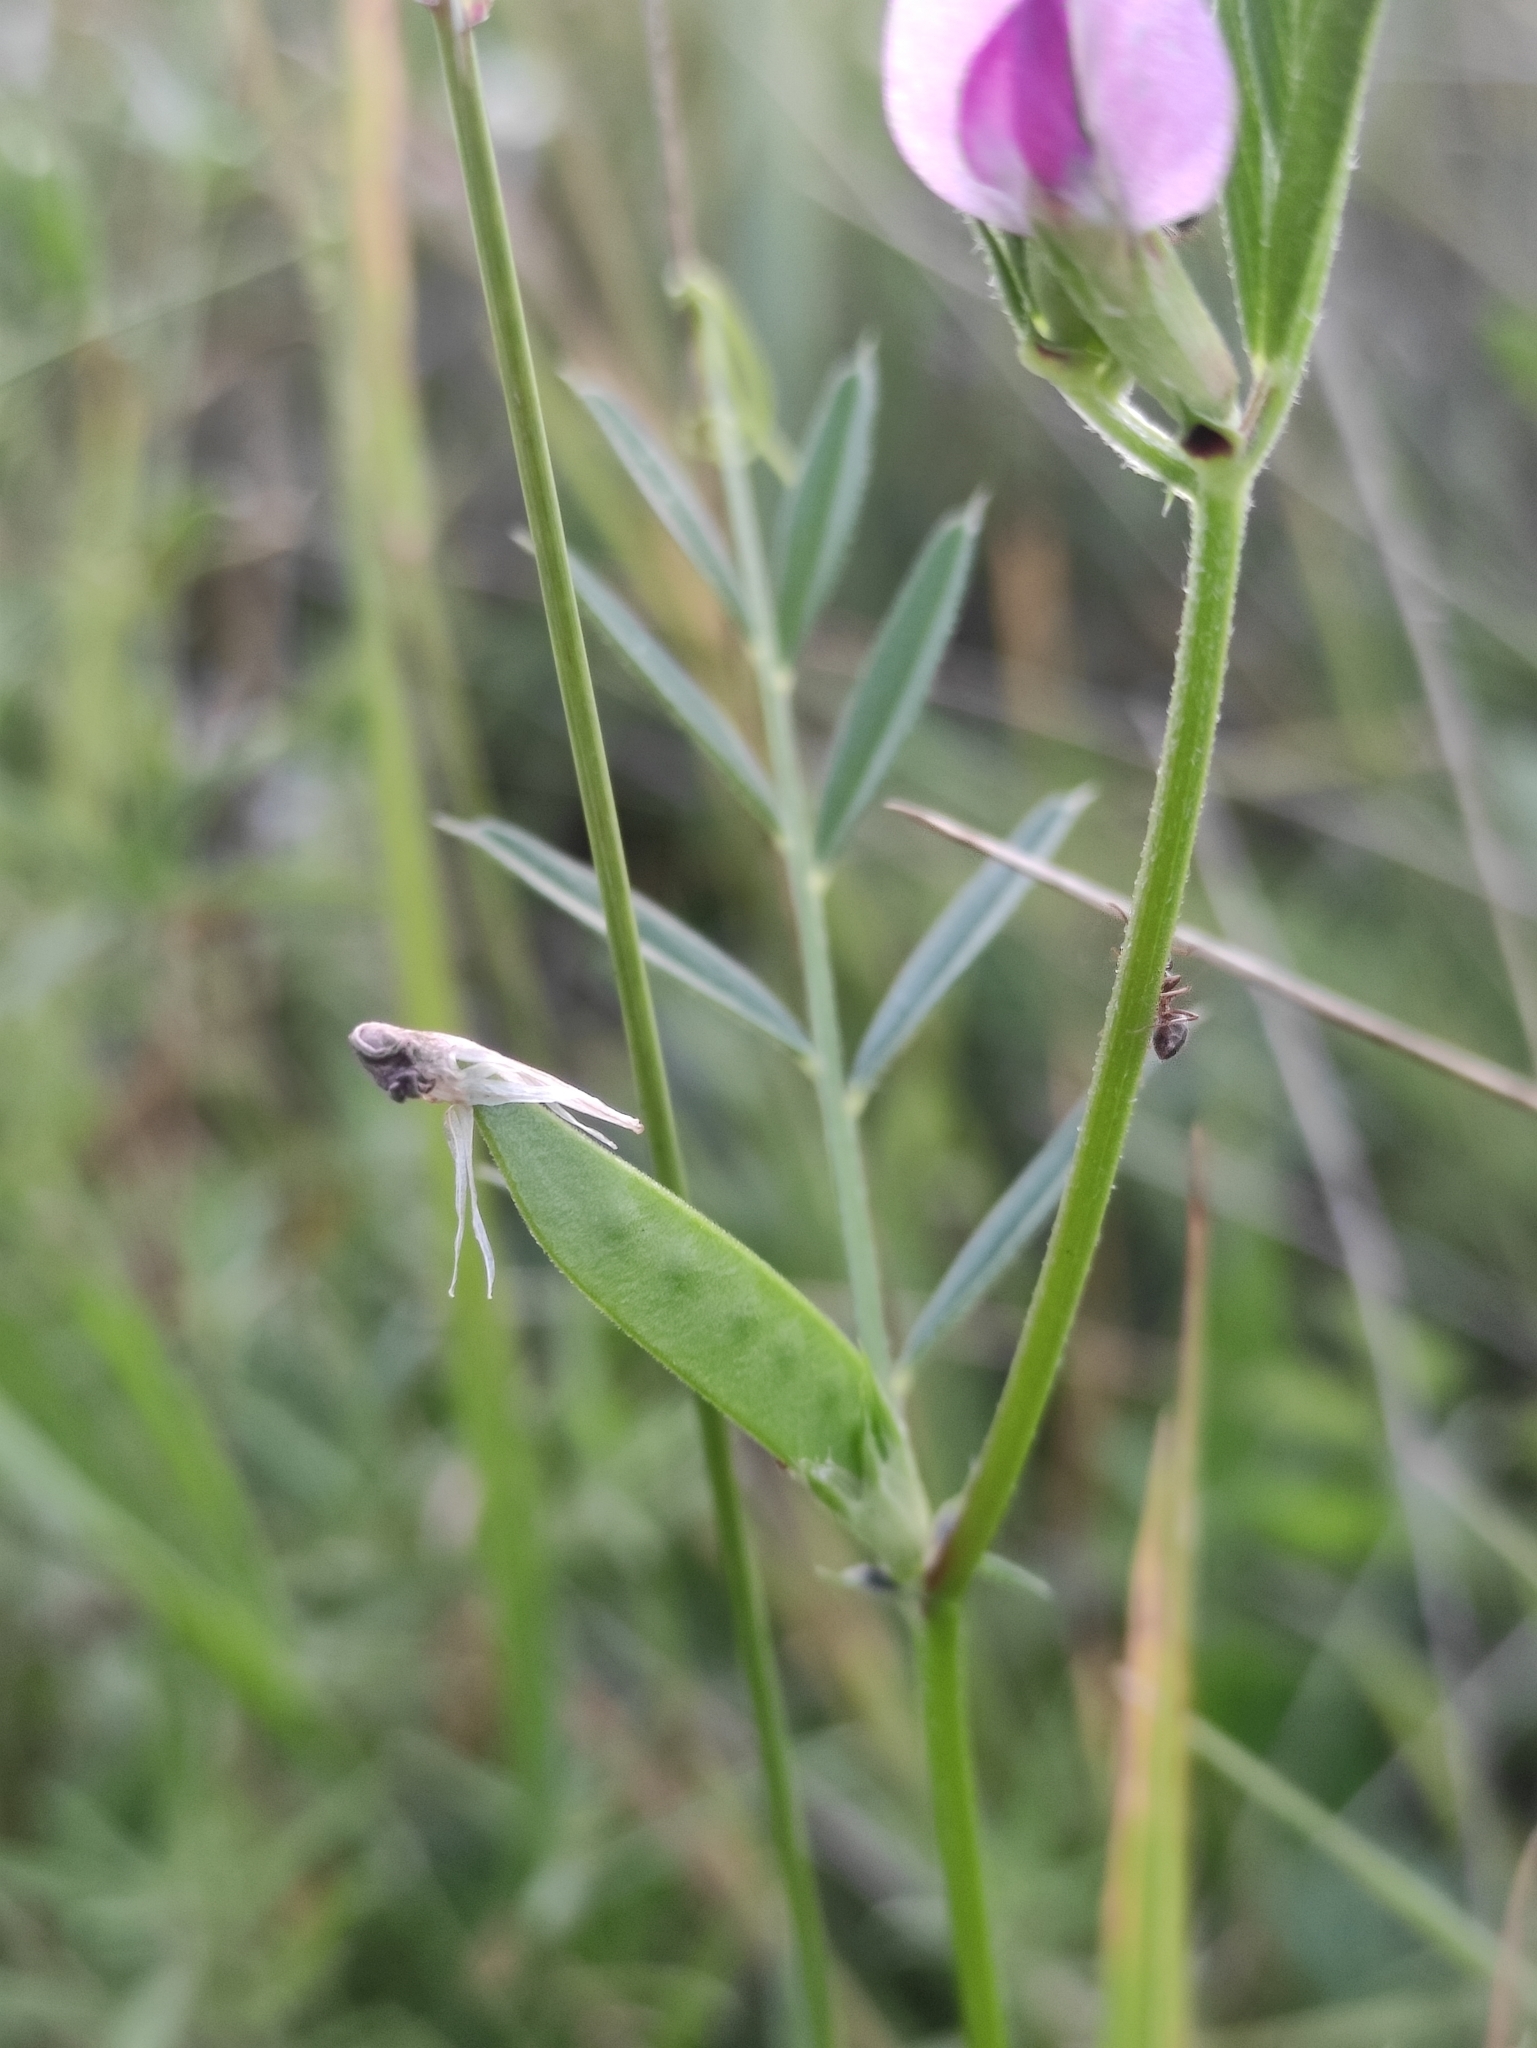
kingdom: Plantae
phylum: Tracheophyta
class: Magnoliopsida
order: Fabales
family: Fabaceae
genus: Vicia
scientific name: Vicia sativa
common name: Garden vetch
